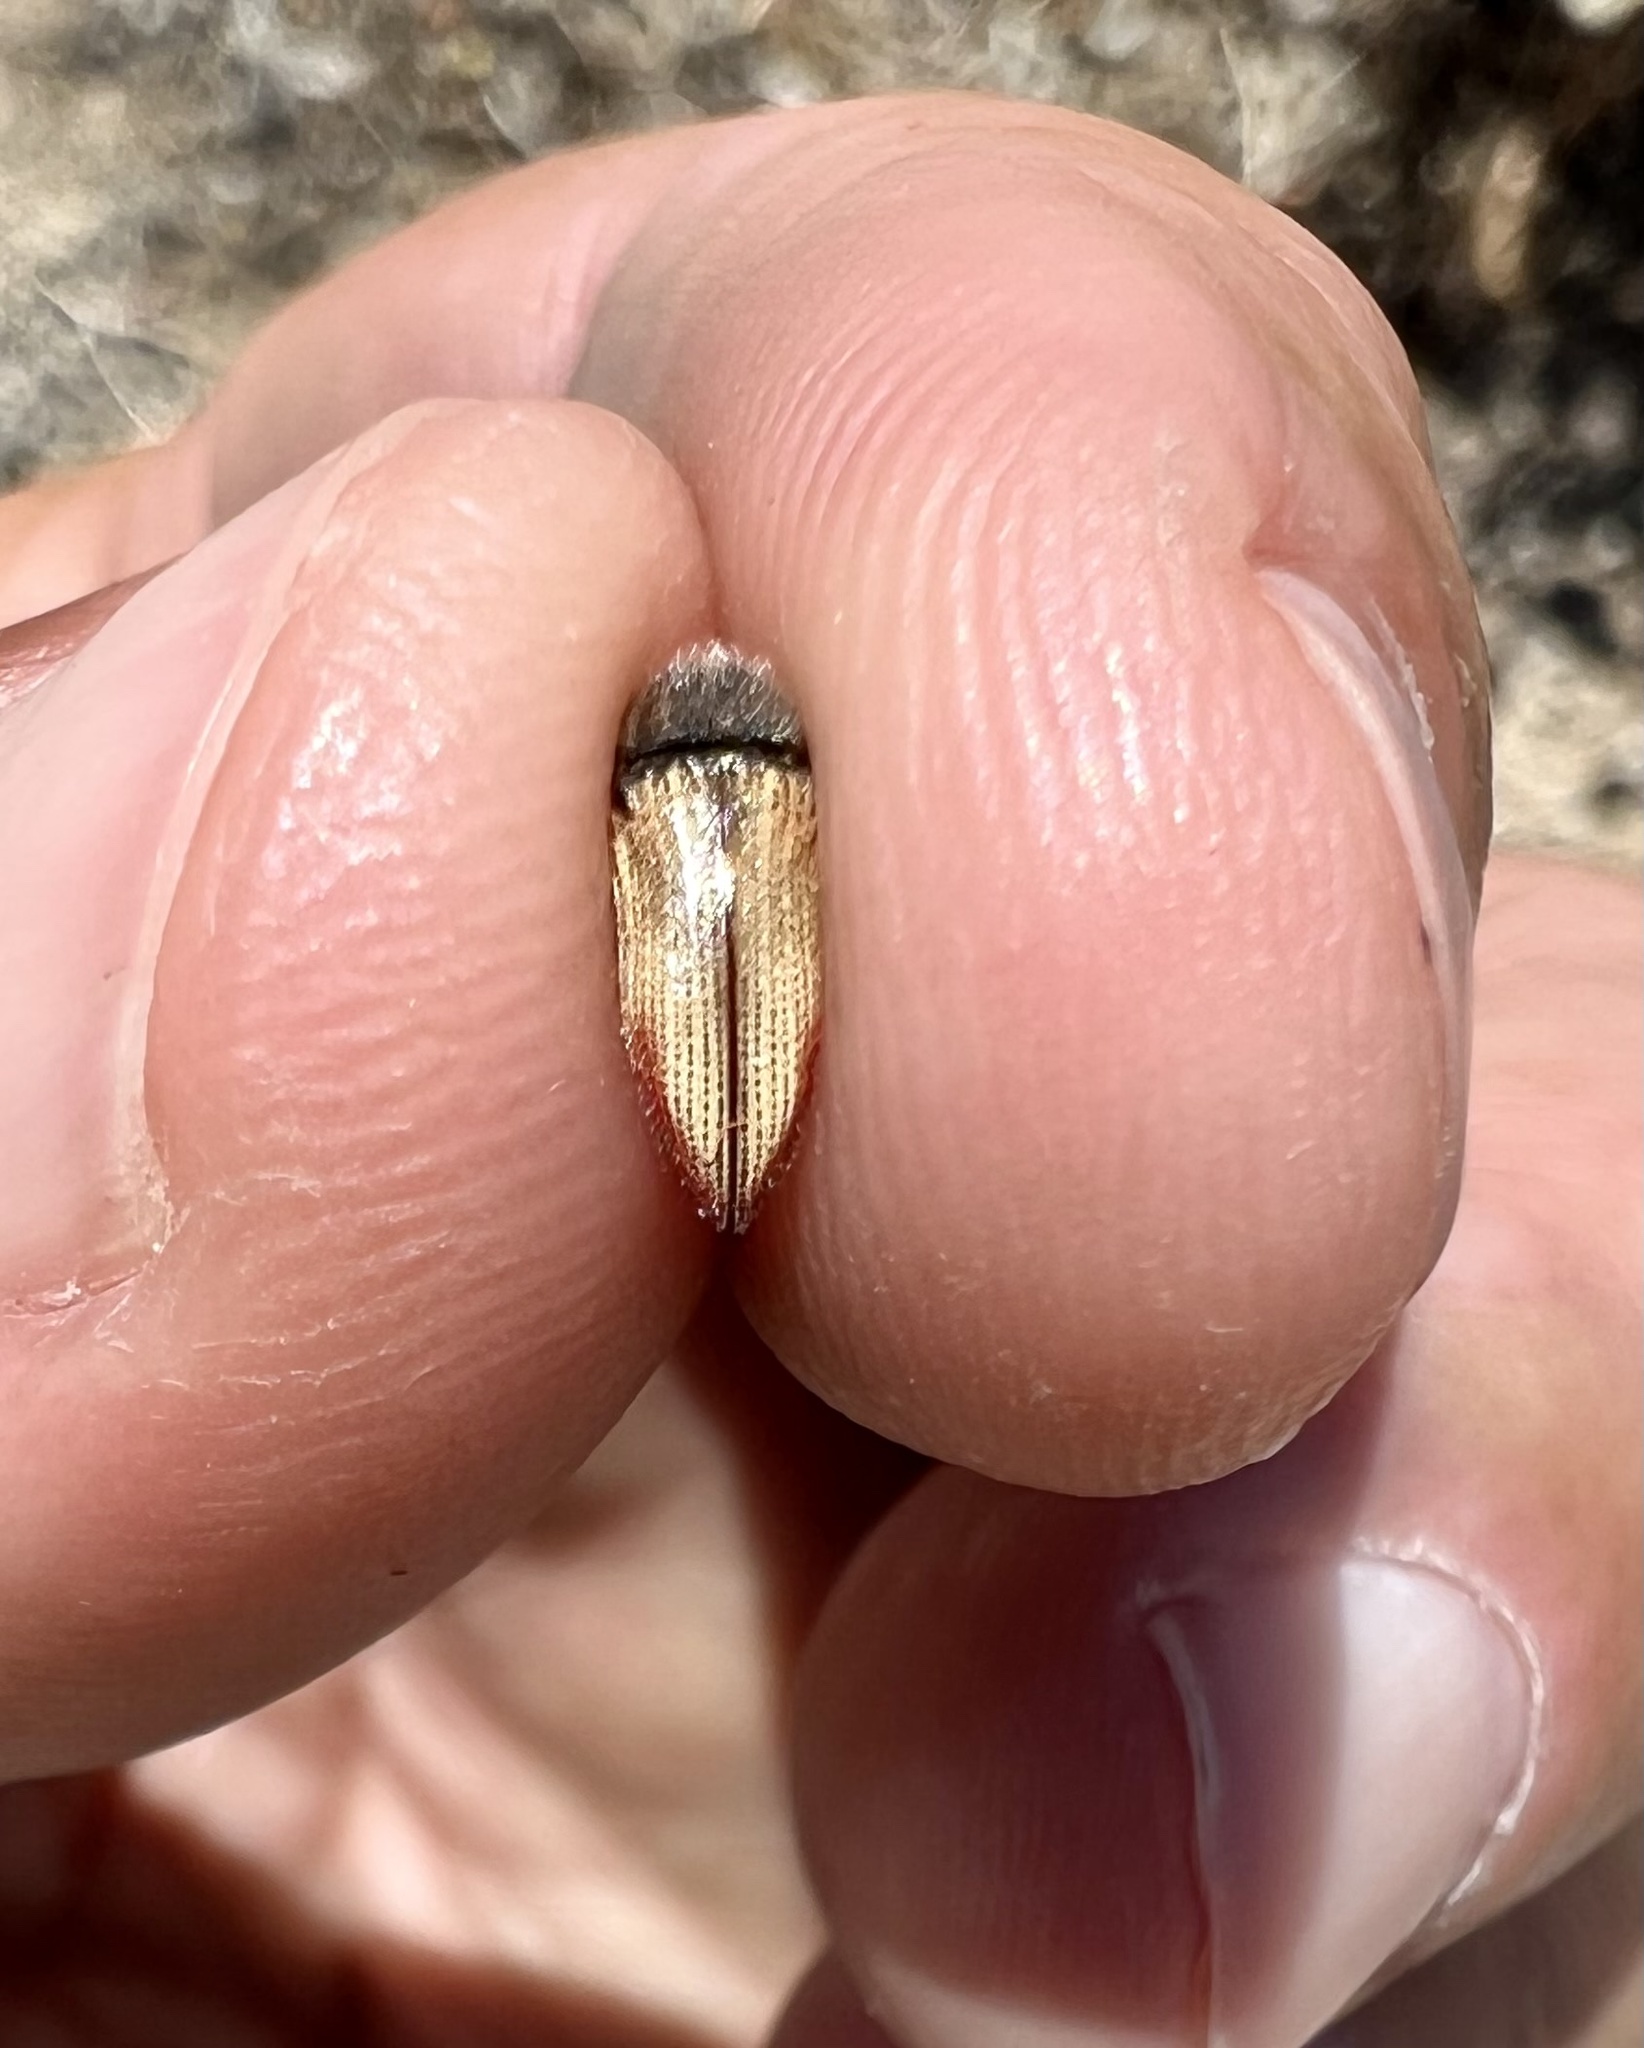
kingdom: Animalia
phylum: Arthropoda
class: Insecta
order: Coleoptera
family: Buprestidae
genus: Acmaeodera
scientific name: Acmaeodera aurora
